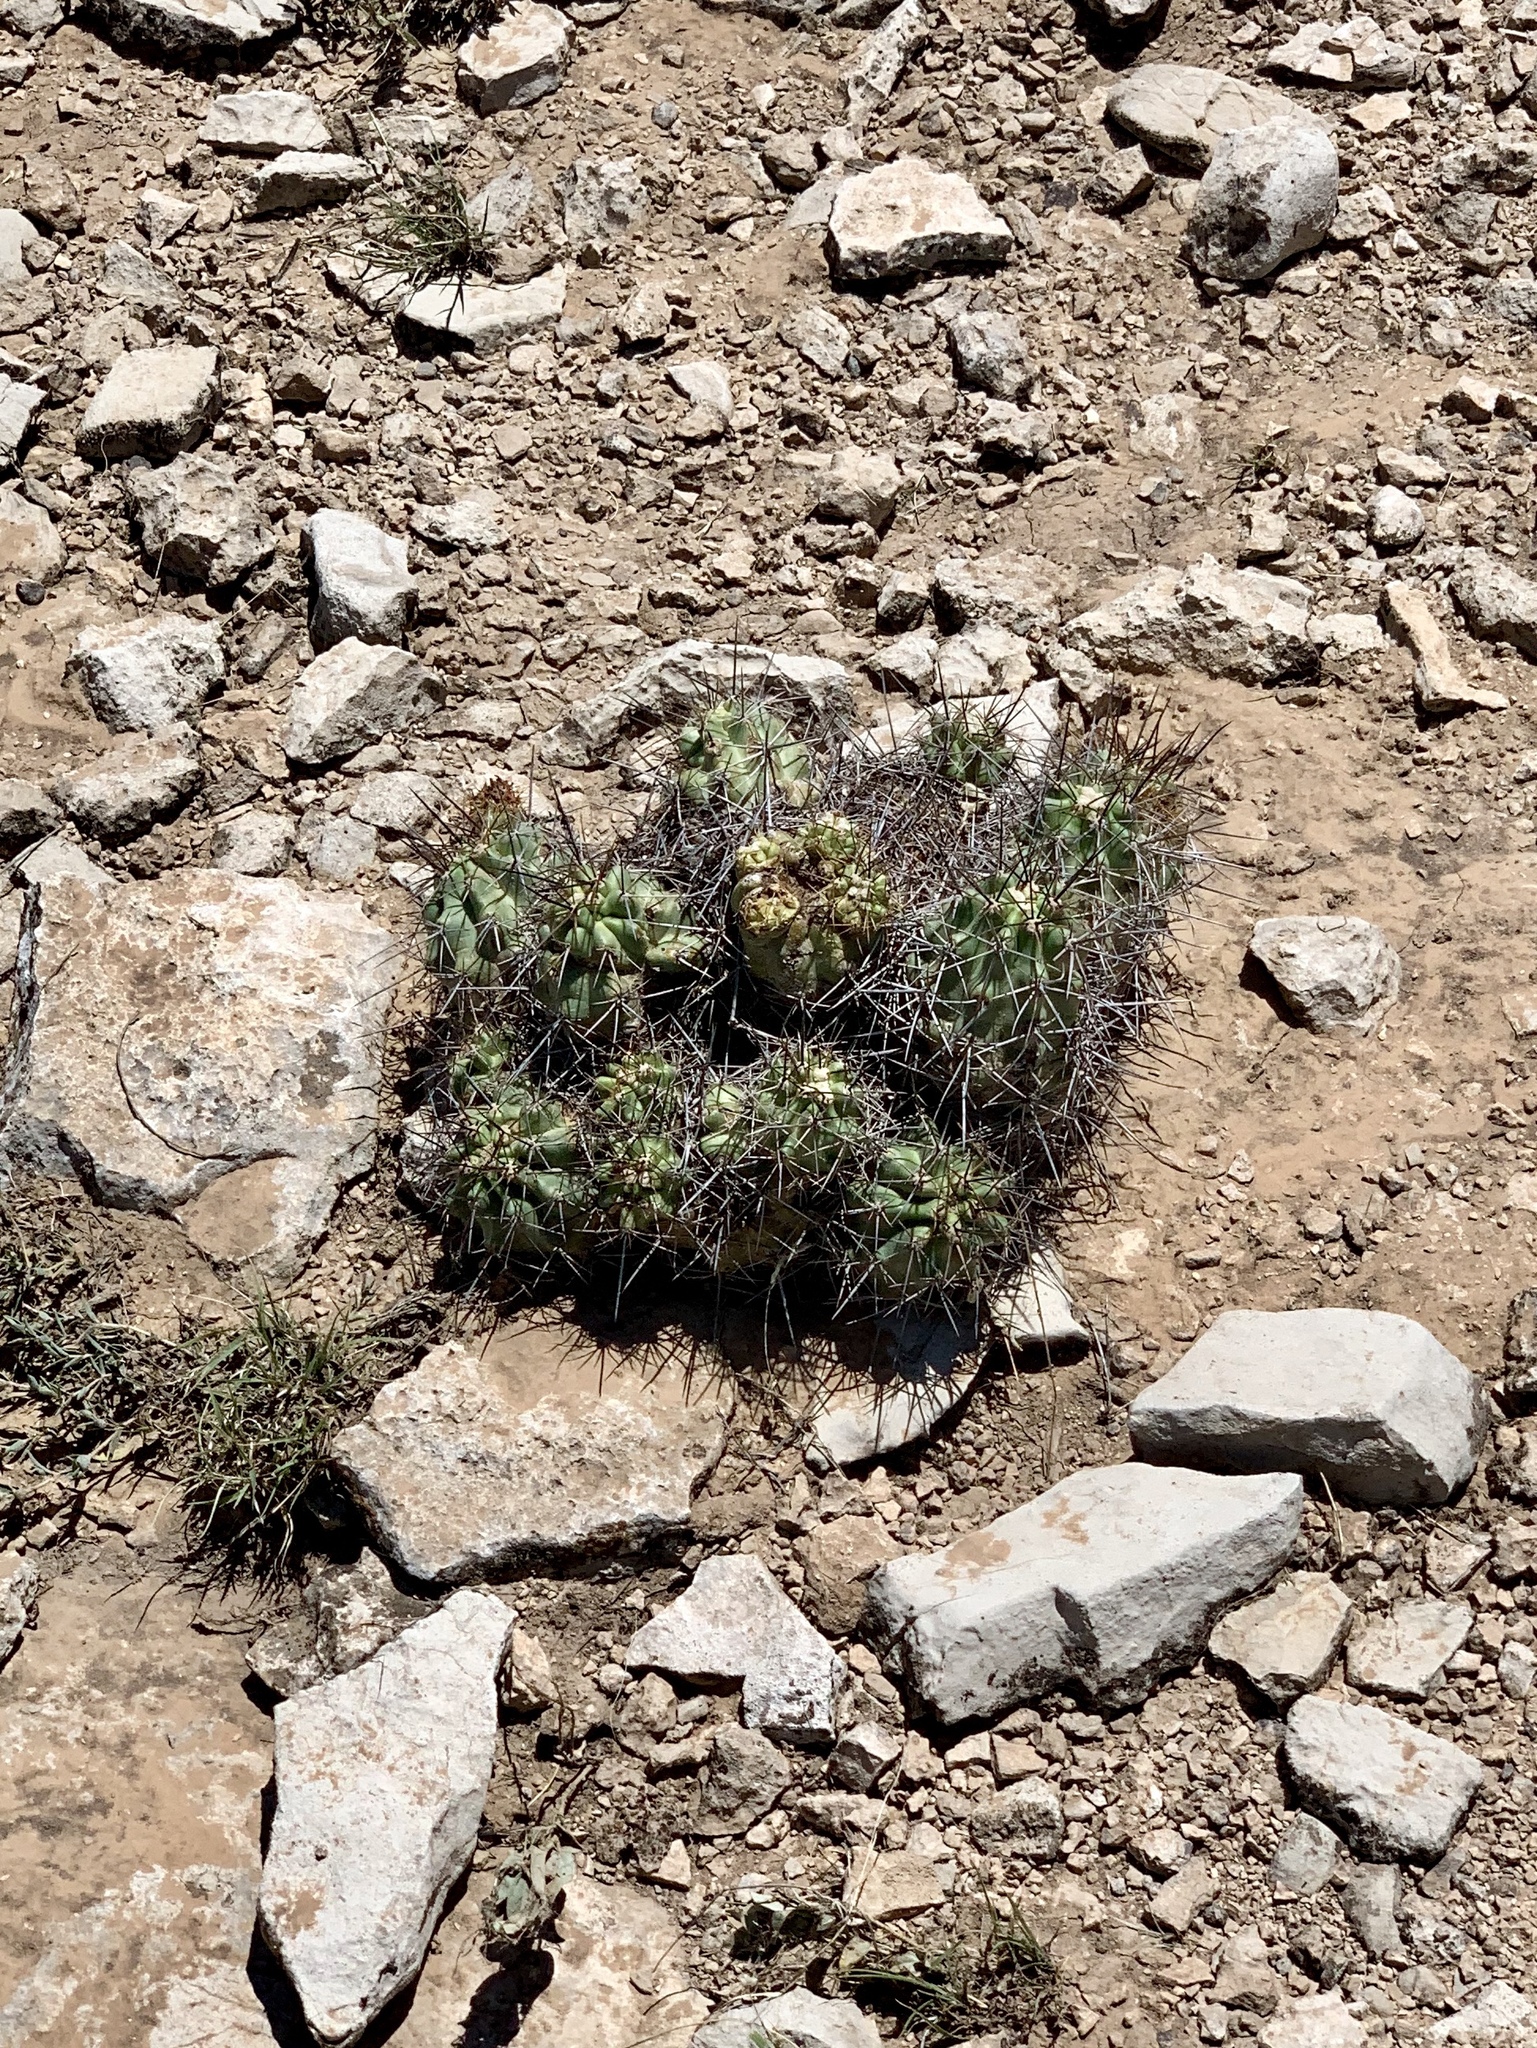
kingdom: Plantae
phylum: Tracheophyta
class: Magnoliopsida
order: Caryophyllales
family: Cactaceae
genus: Echinocereus
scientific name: Echinocereus coccineus
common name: Scarlet hedgehog cactus
